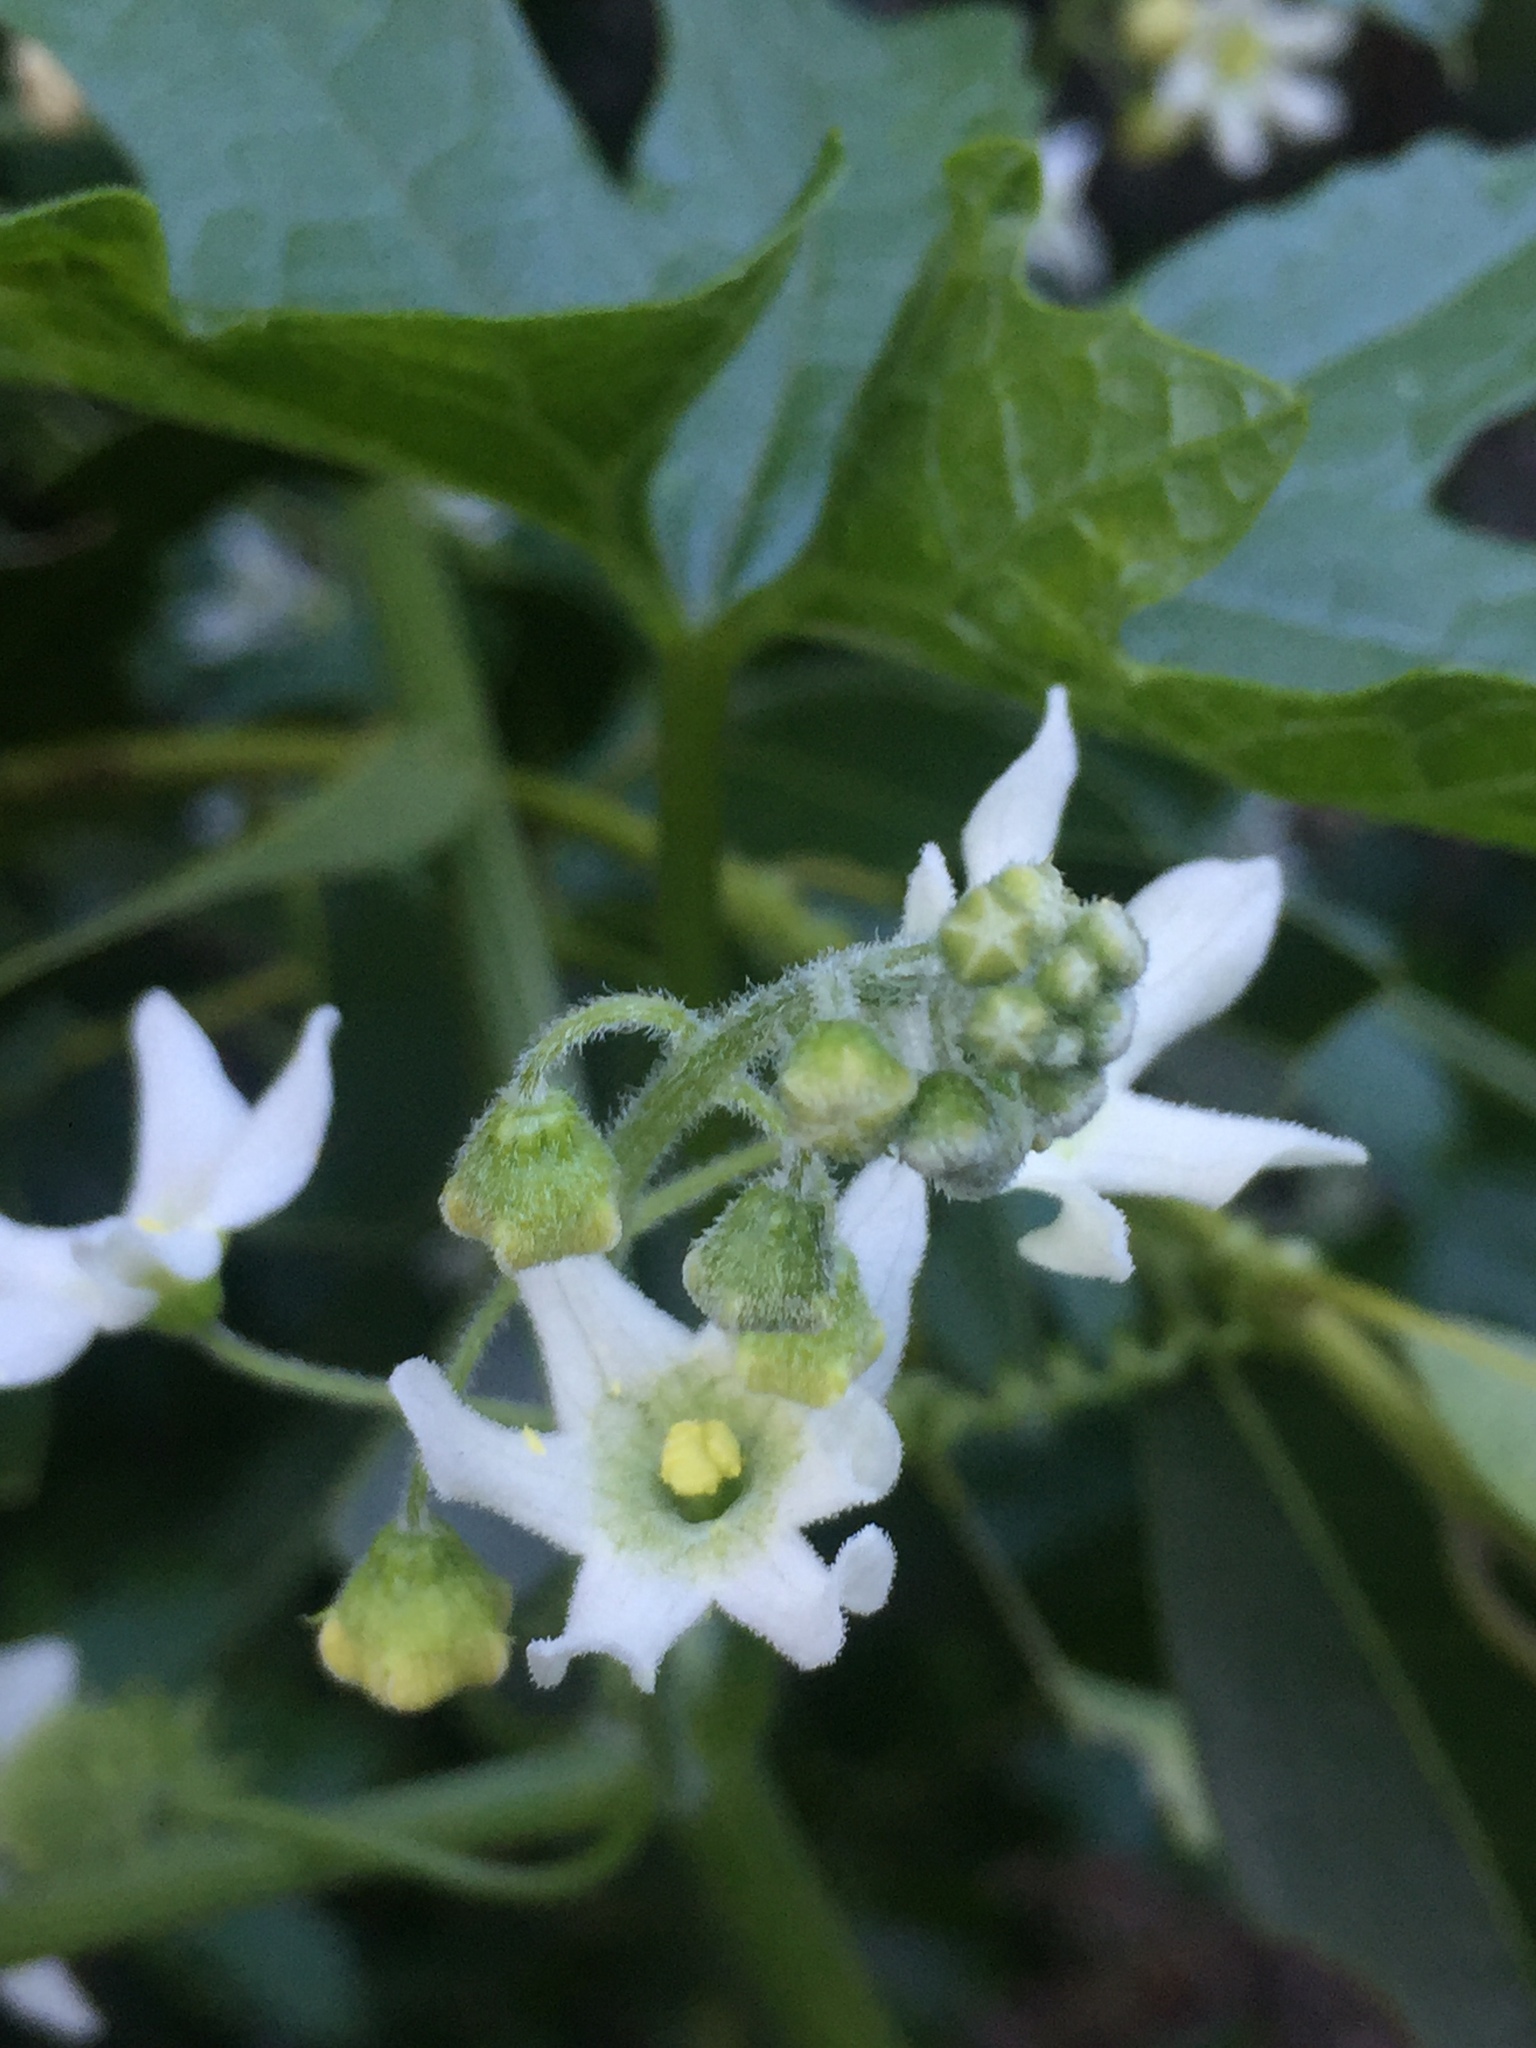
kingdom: Plantae
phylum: Tracheophyta
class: Magnoliopsida
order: Cucurbitales
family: Cucurbitaceae
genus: Marah
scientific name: Marah macrocarpa
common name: Cucamonga manroot
